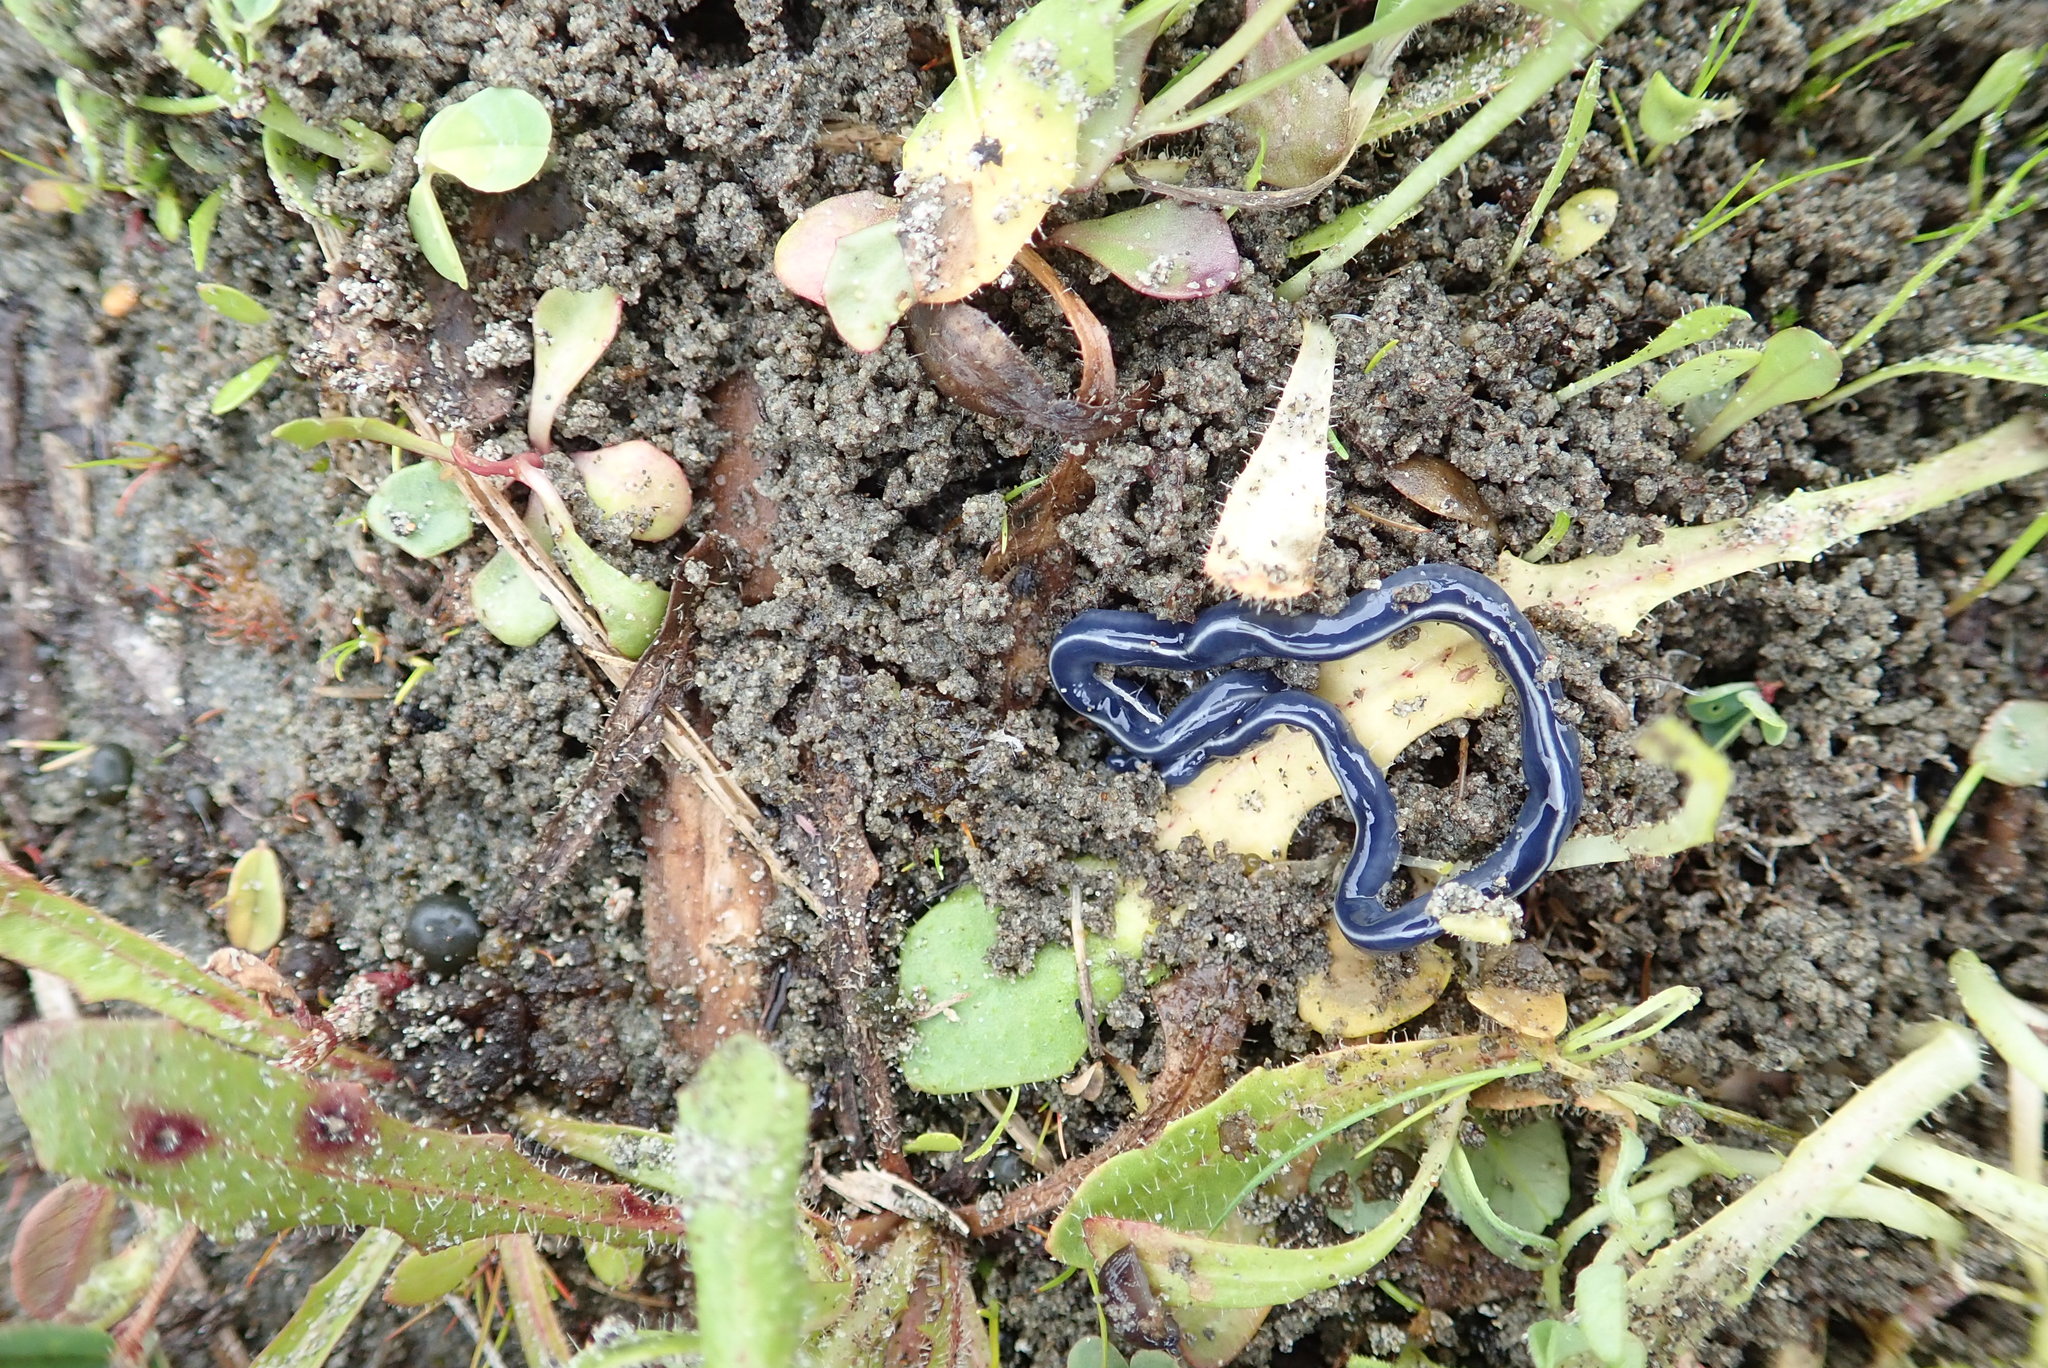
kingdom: Animalia
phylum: Platyhelminthes
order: Tricladida
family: Geoplanidae
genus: Caenoplana
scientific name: Caenoplana coerulea
